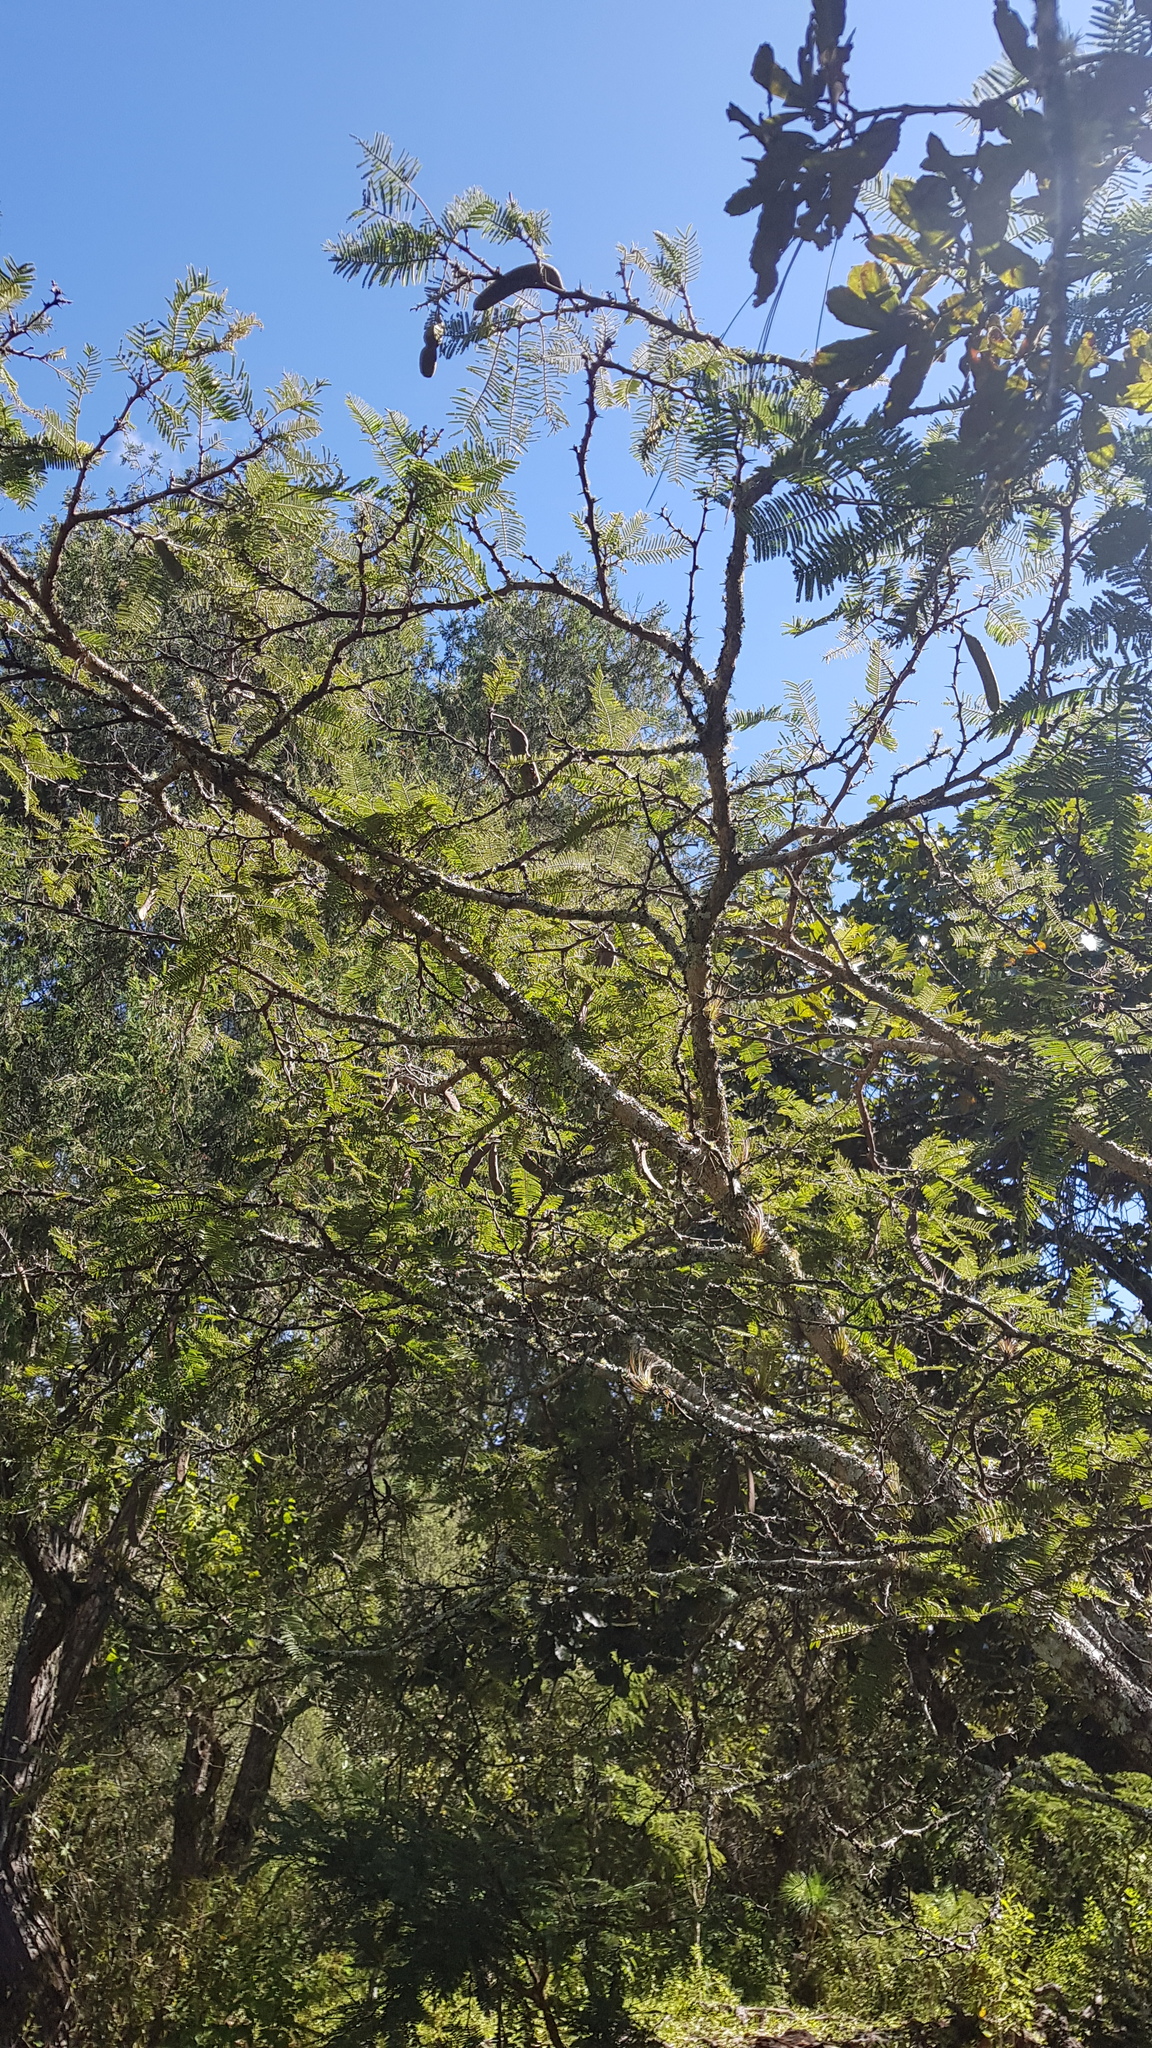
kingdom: Plantae
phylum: Tracheophyta
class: Magnoliopsida
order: Fabales
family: Fabaceae
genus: Vachellia
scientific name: Vachellia pennatula
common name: Fern-leaf acacia
